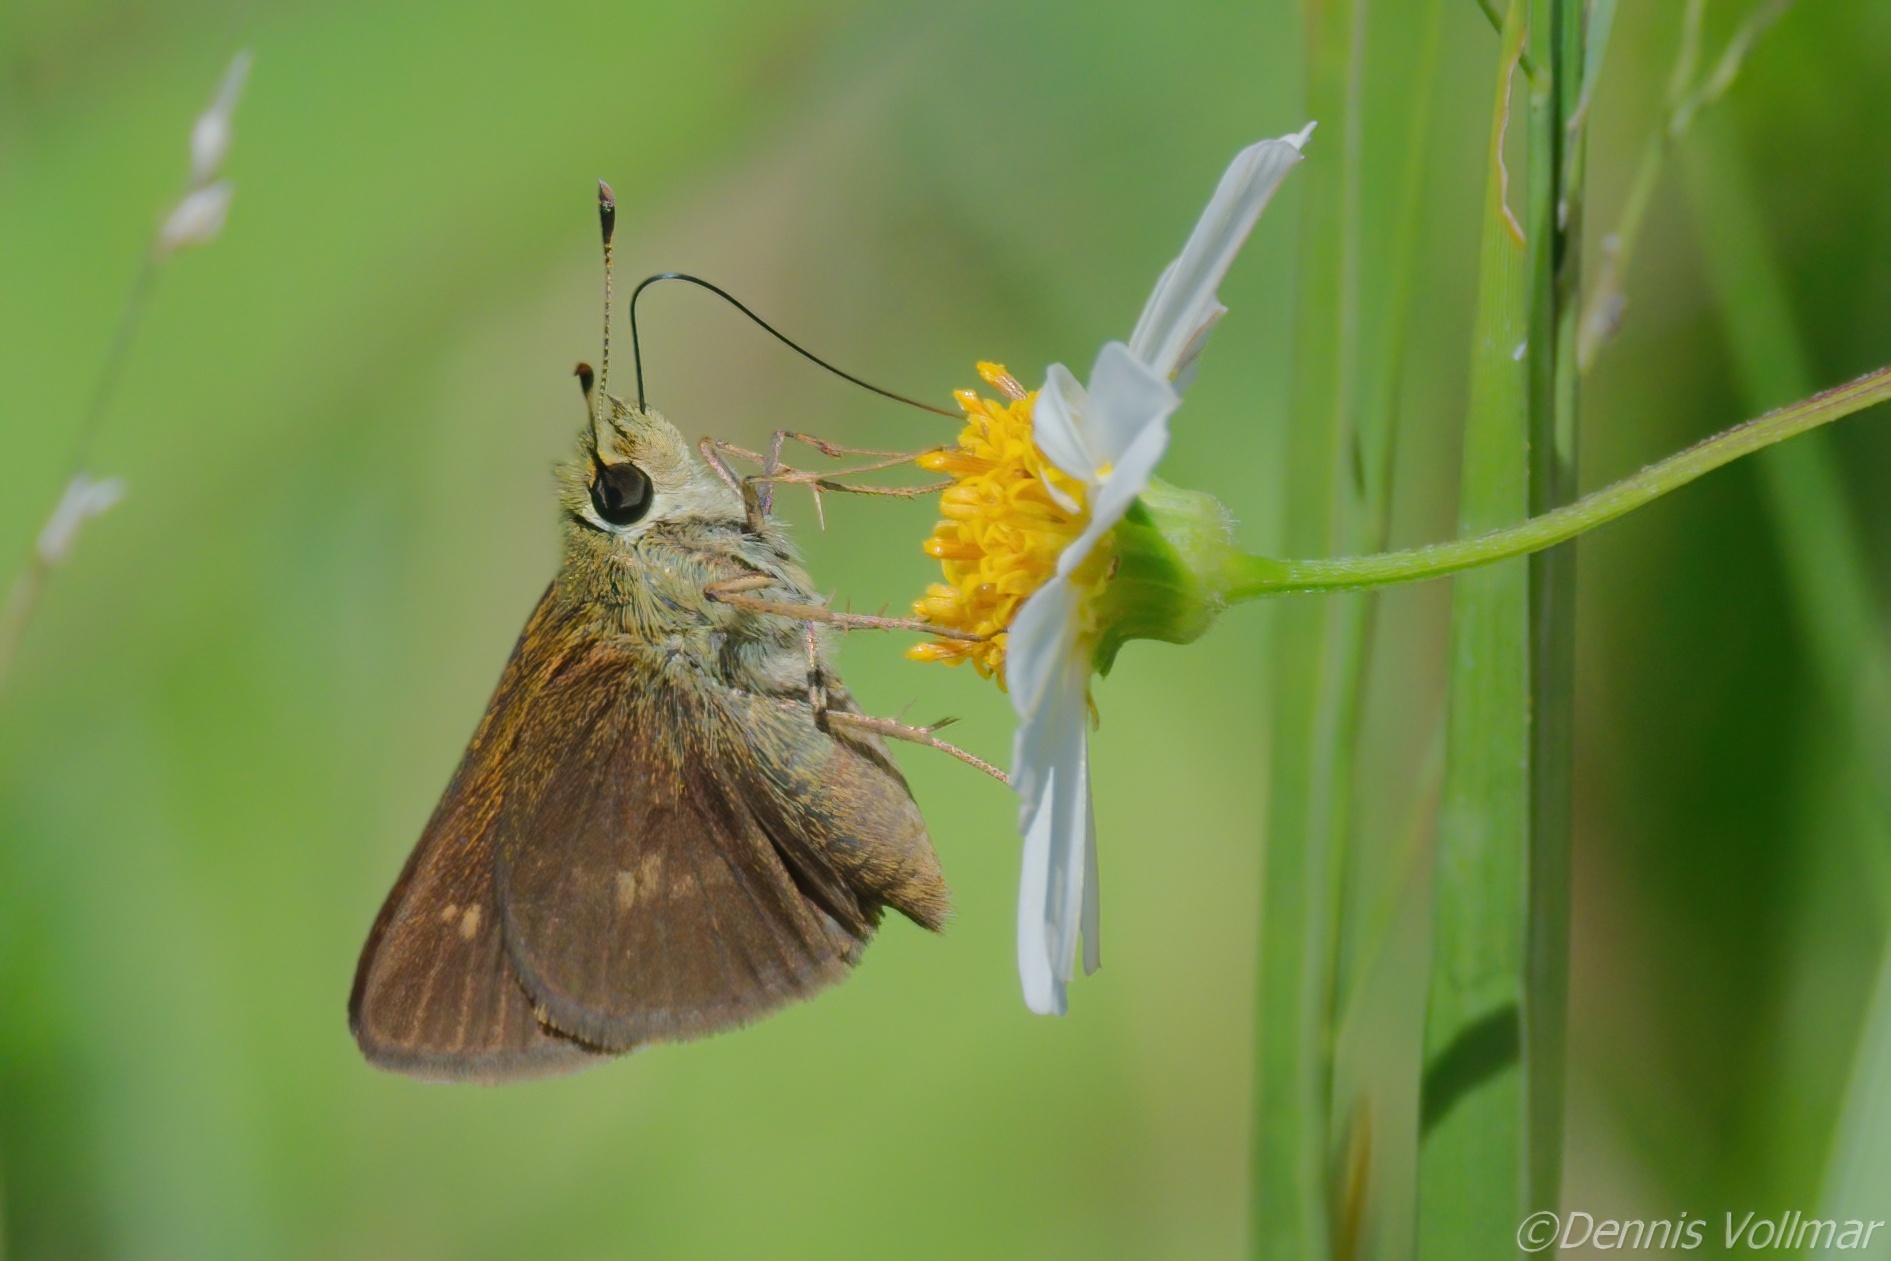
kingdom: Animalia
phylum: Arthropoda
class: Insecta
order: Lepidoptera
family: Hesperiidae
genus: Polites
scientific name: Polites egeremet
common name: Northern broken-dash
